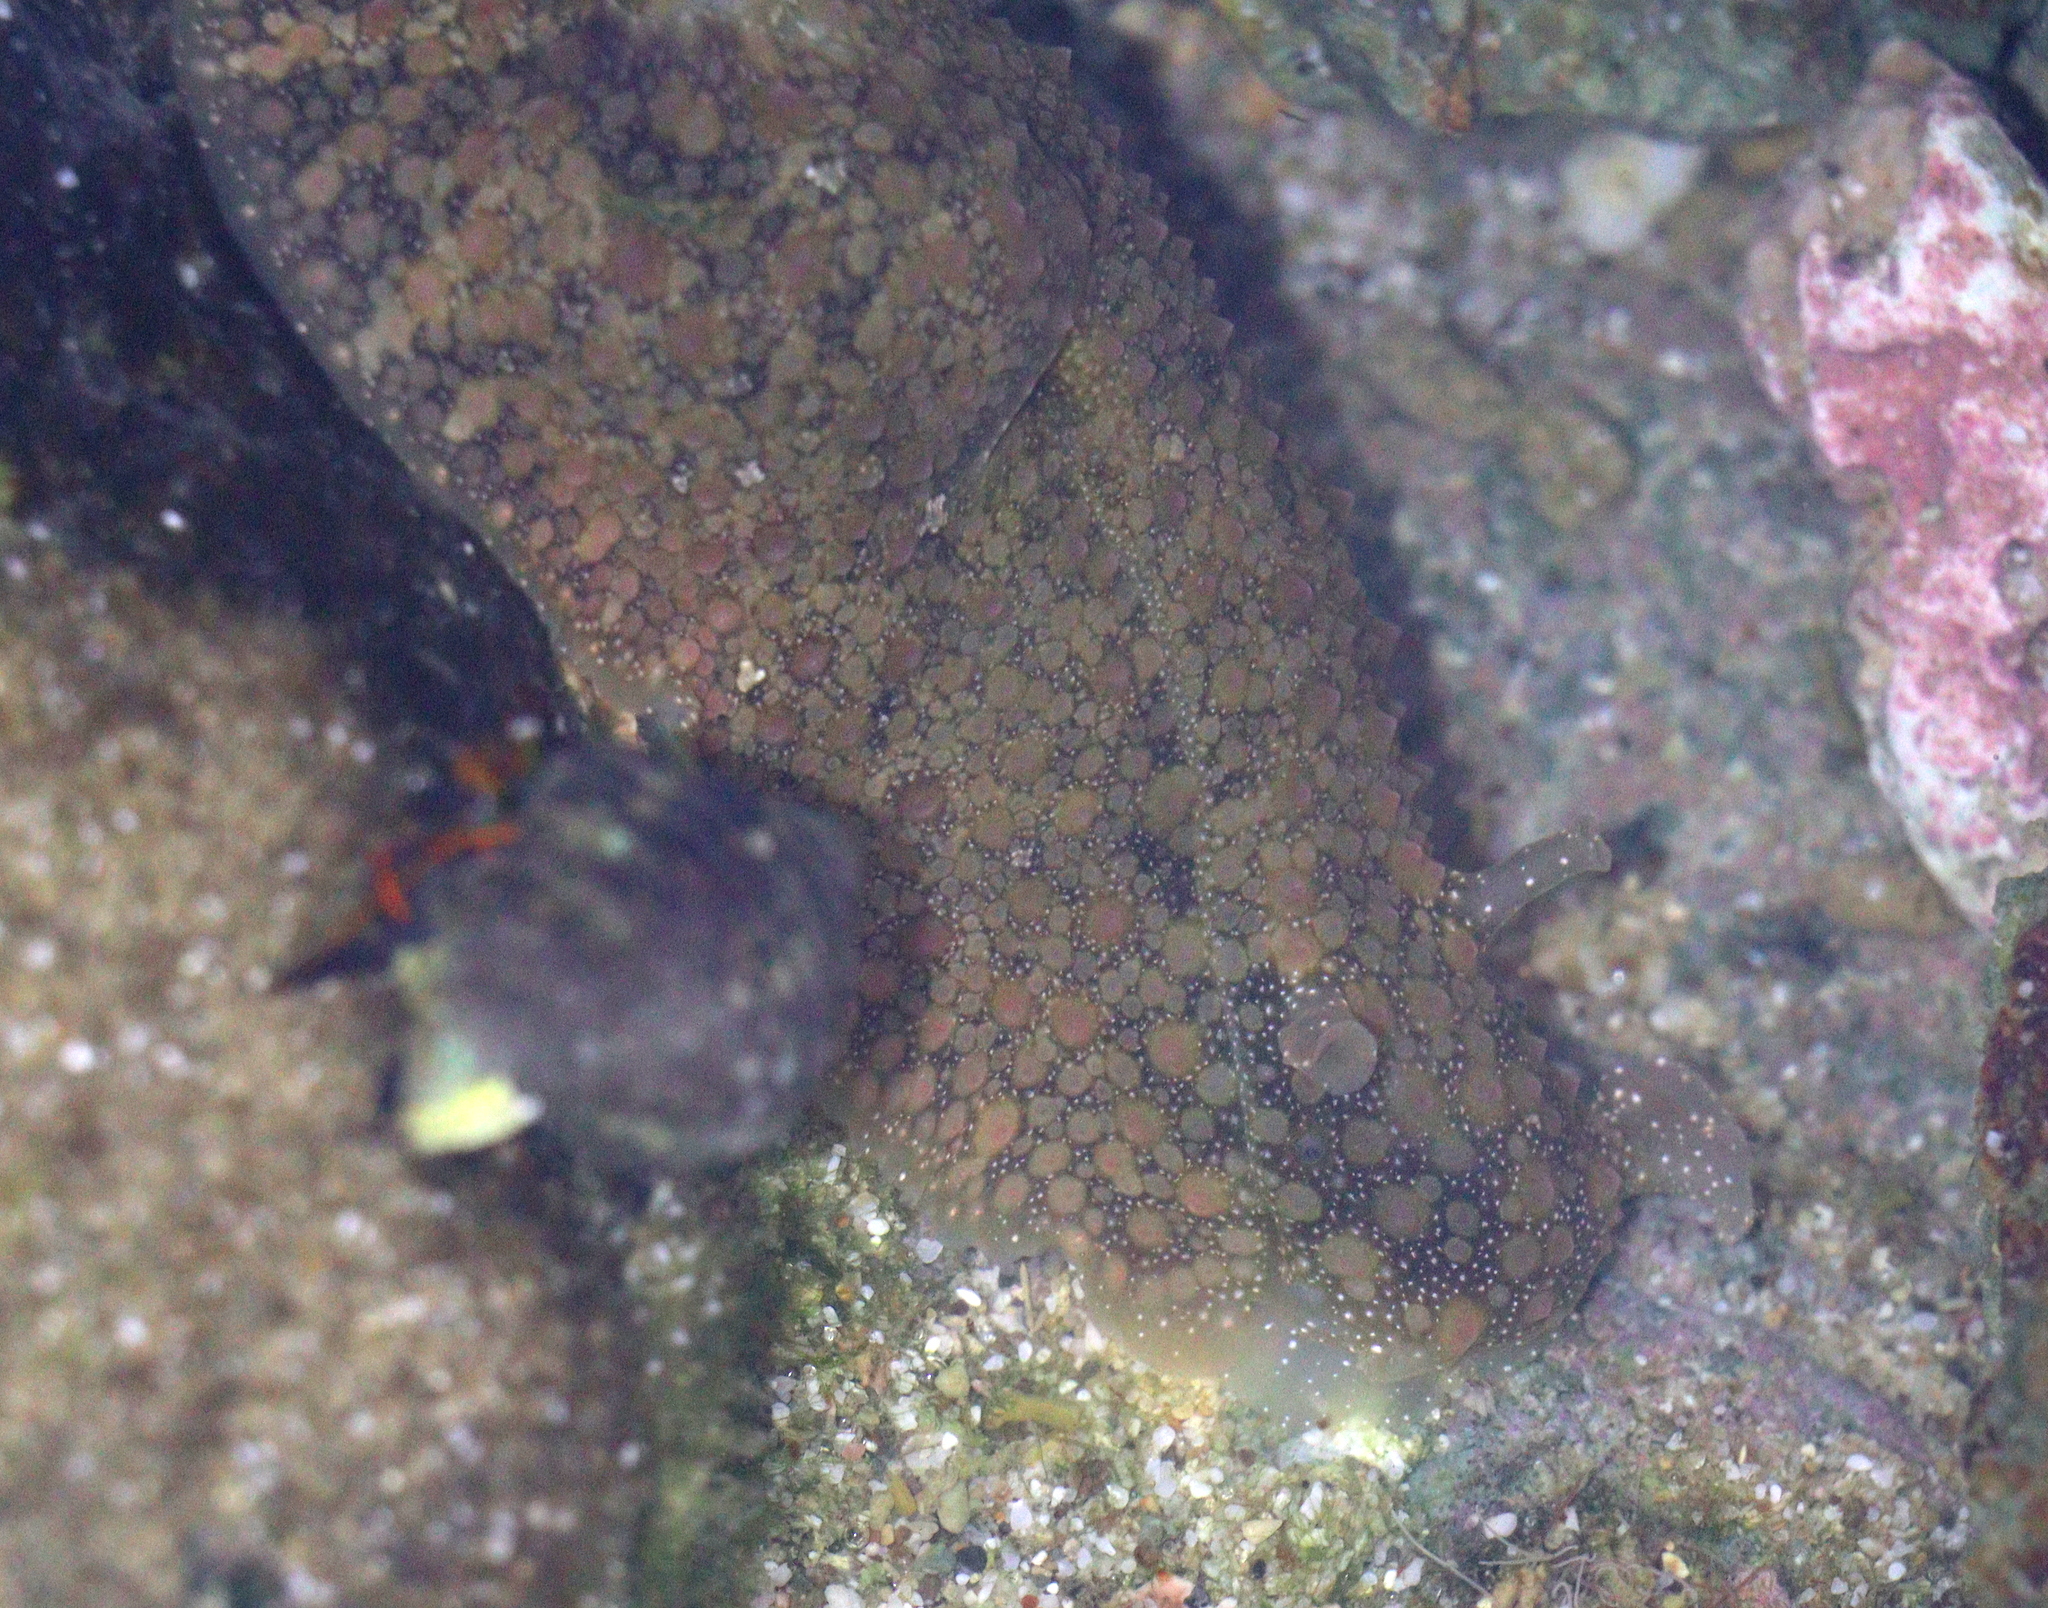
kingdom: Animalia
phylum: Mollusca
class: Gastropoda
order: Aplysiida
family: Aplysiidae
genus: Dolabrifera
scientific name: Dolabrifera nicaraguana
